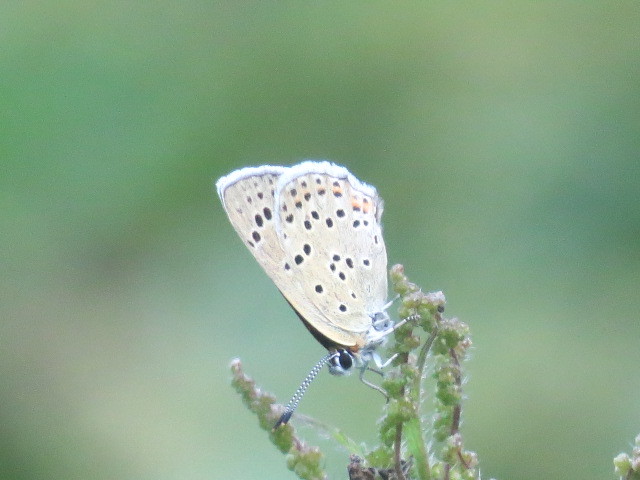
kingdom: Animalia
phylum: Arthropoda
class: Insecta
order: Lepidoptera
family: Lycaenidae
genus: Loweia
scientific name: Loweia tityrus
